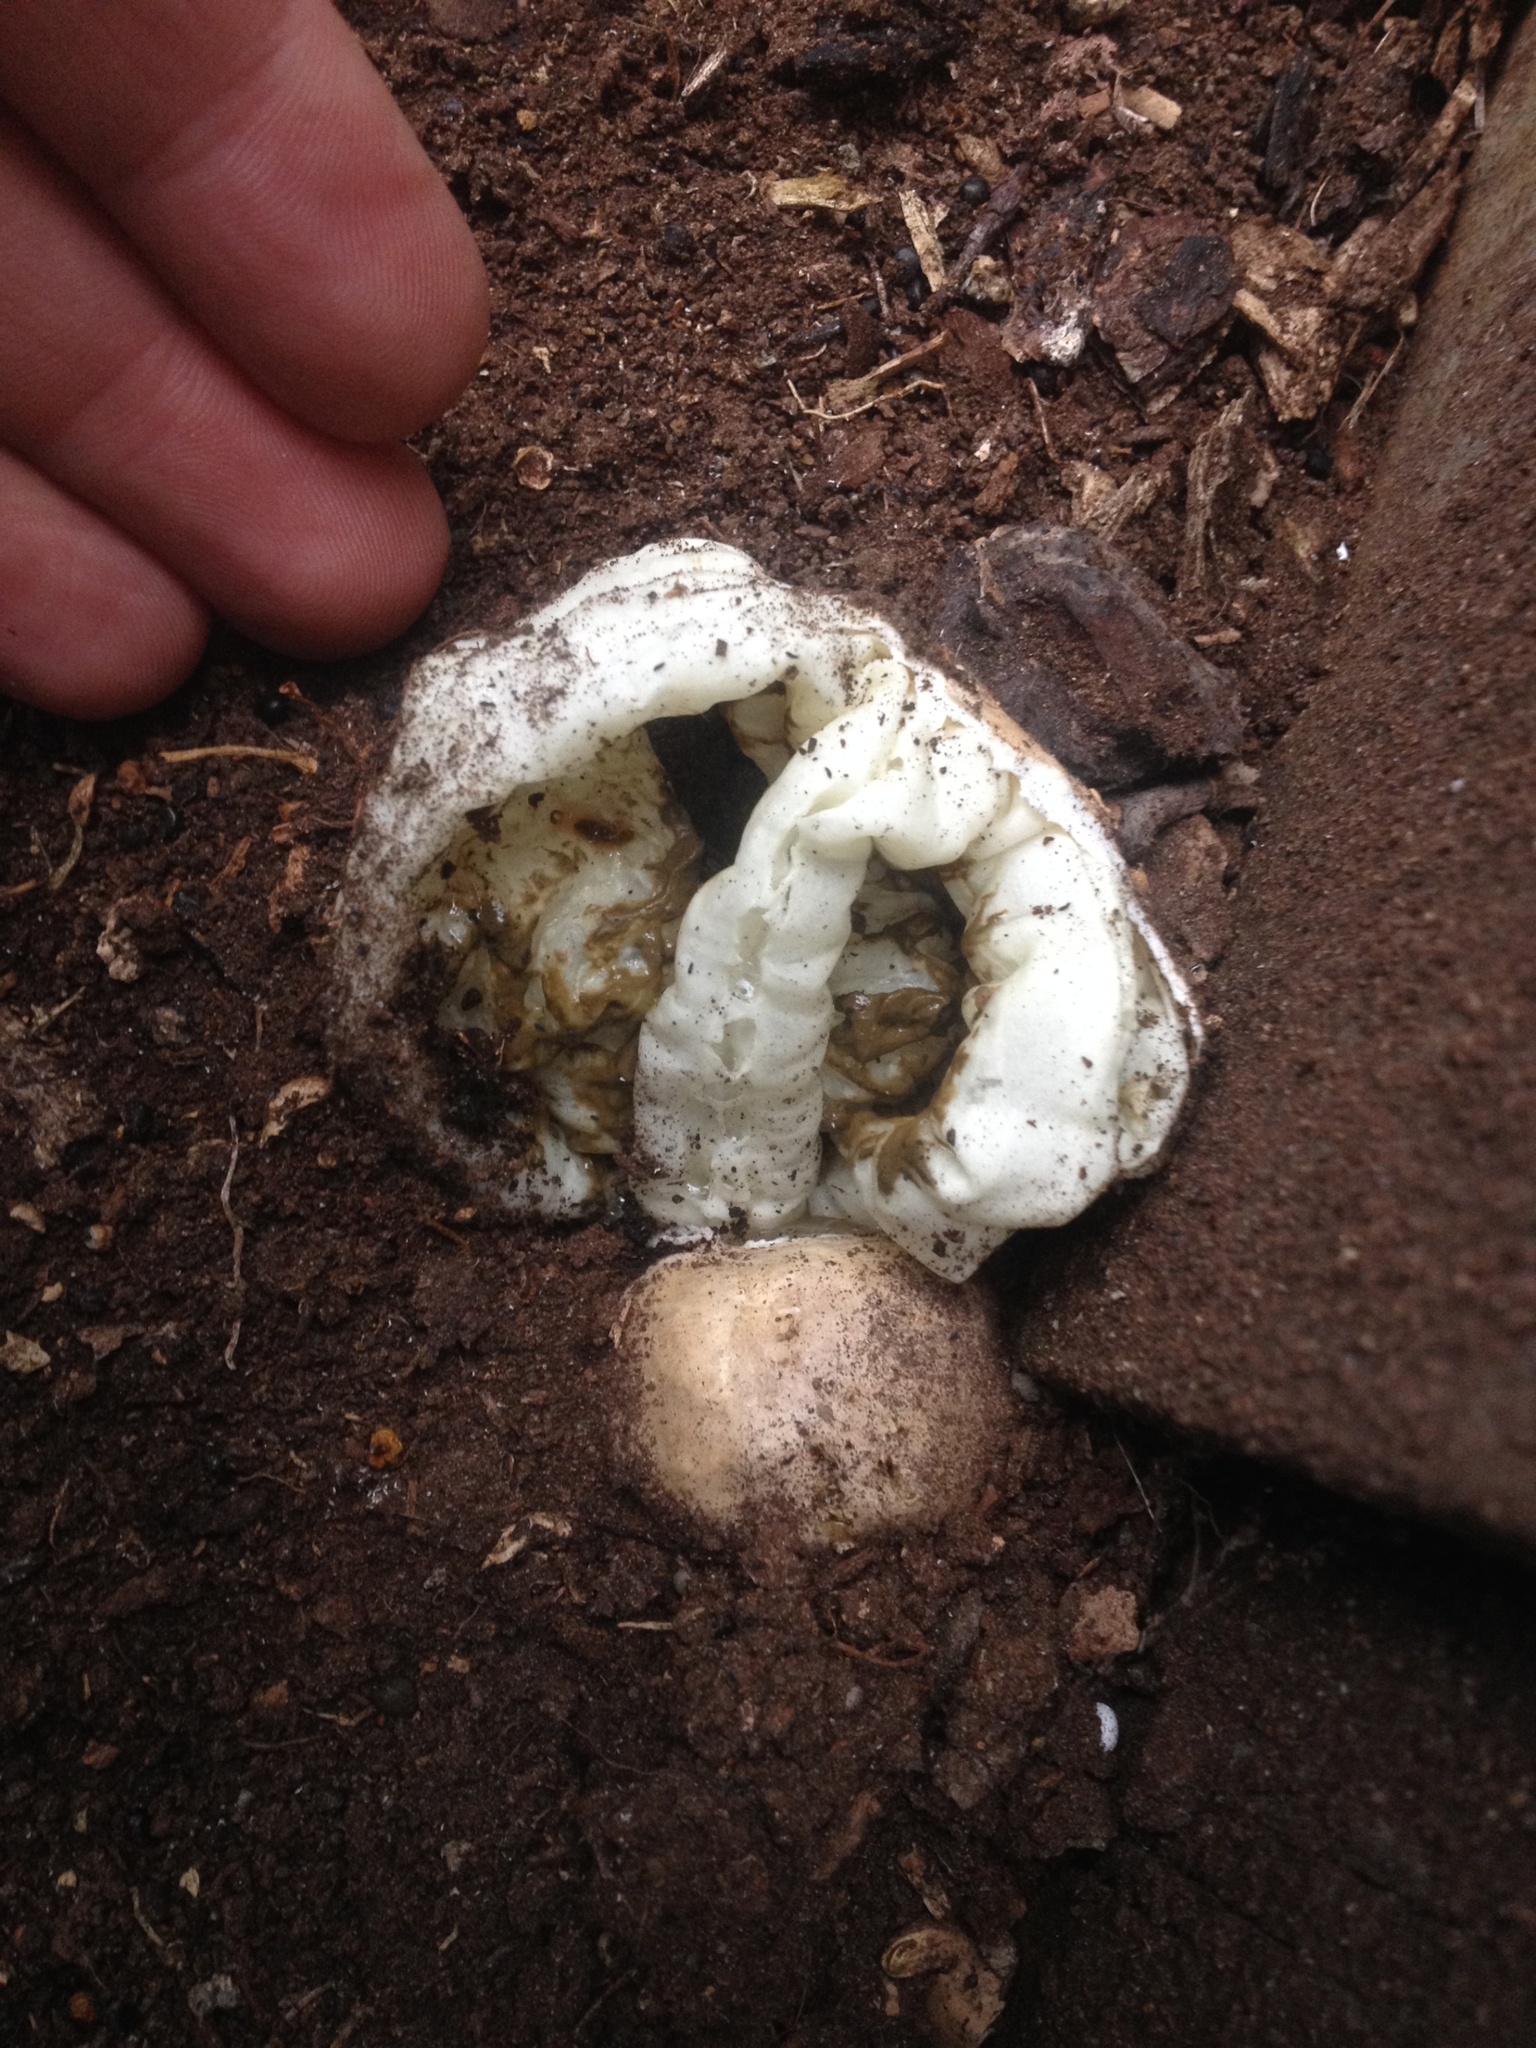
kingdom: Fungi
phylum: Basidiomycota
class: Agaricomycetes
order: Phallales
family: Phallaceae
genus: Ileodictyon
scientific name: Ileodictyon cibarium
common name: Basket fungus
